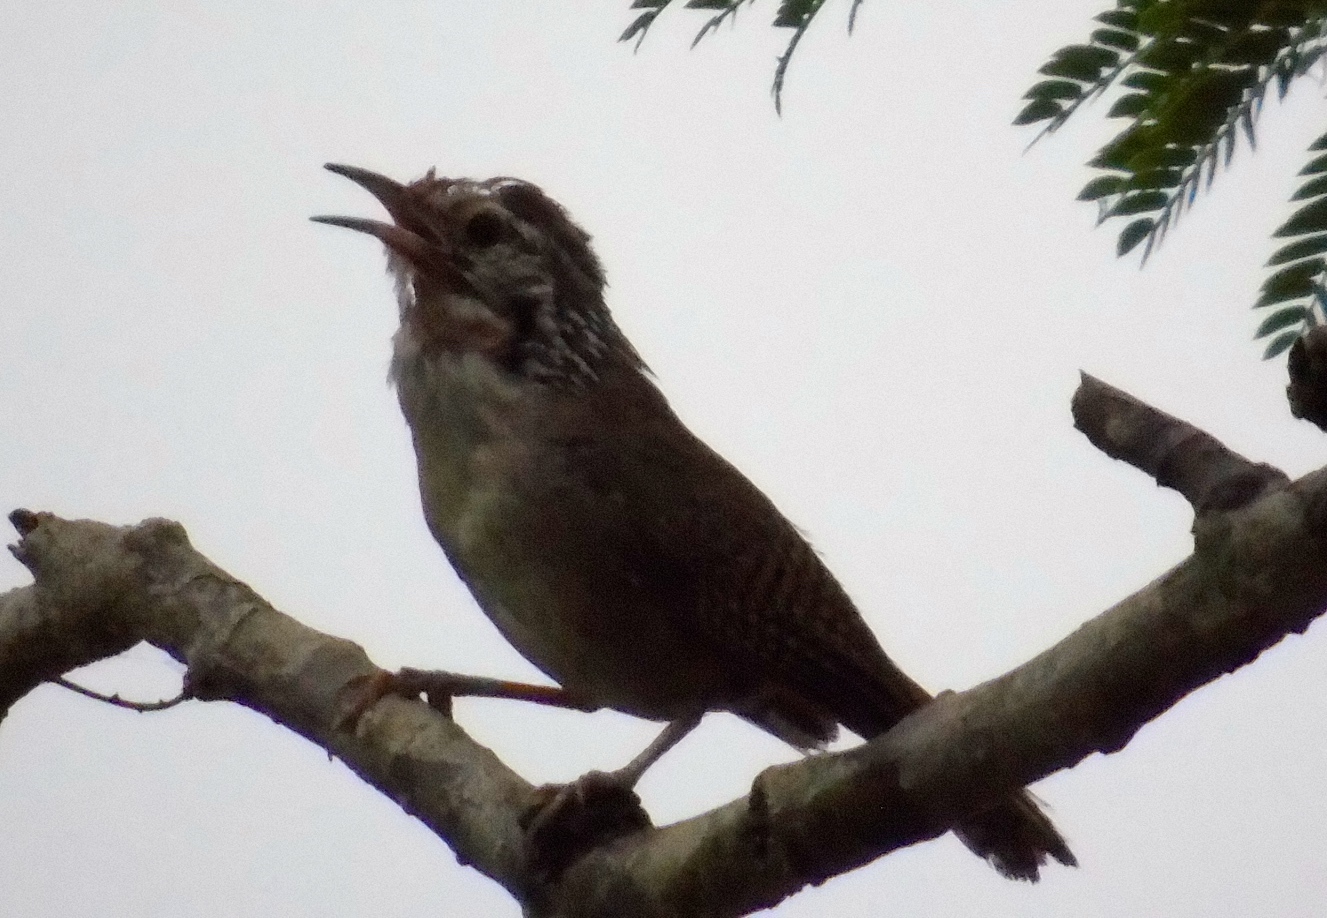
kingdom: Animalia
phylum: Chordata
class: Aves
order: Passeriformes
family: Troglodytidae
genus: Thryophilus
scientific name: Thryophilus sinaloa
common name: Sinaloa wren
